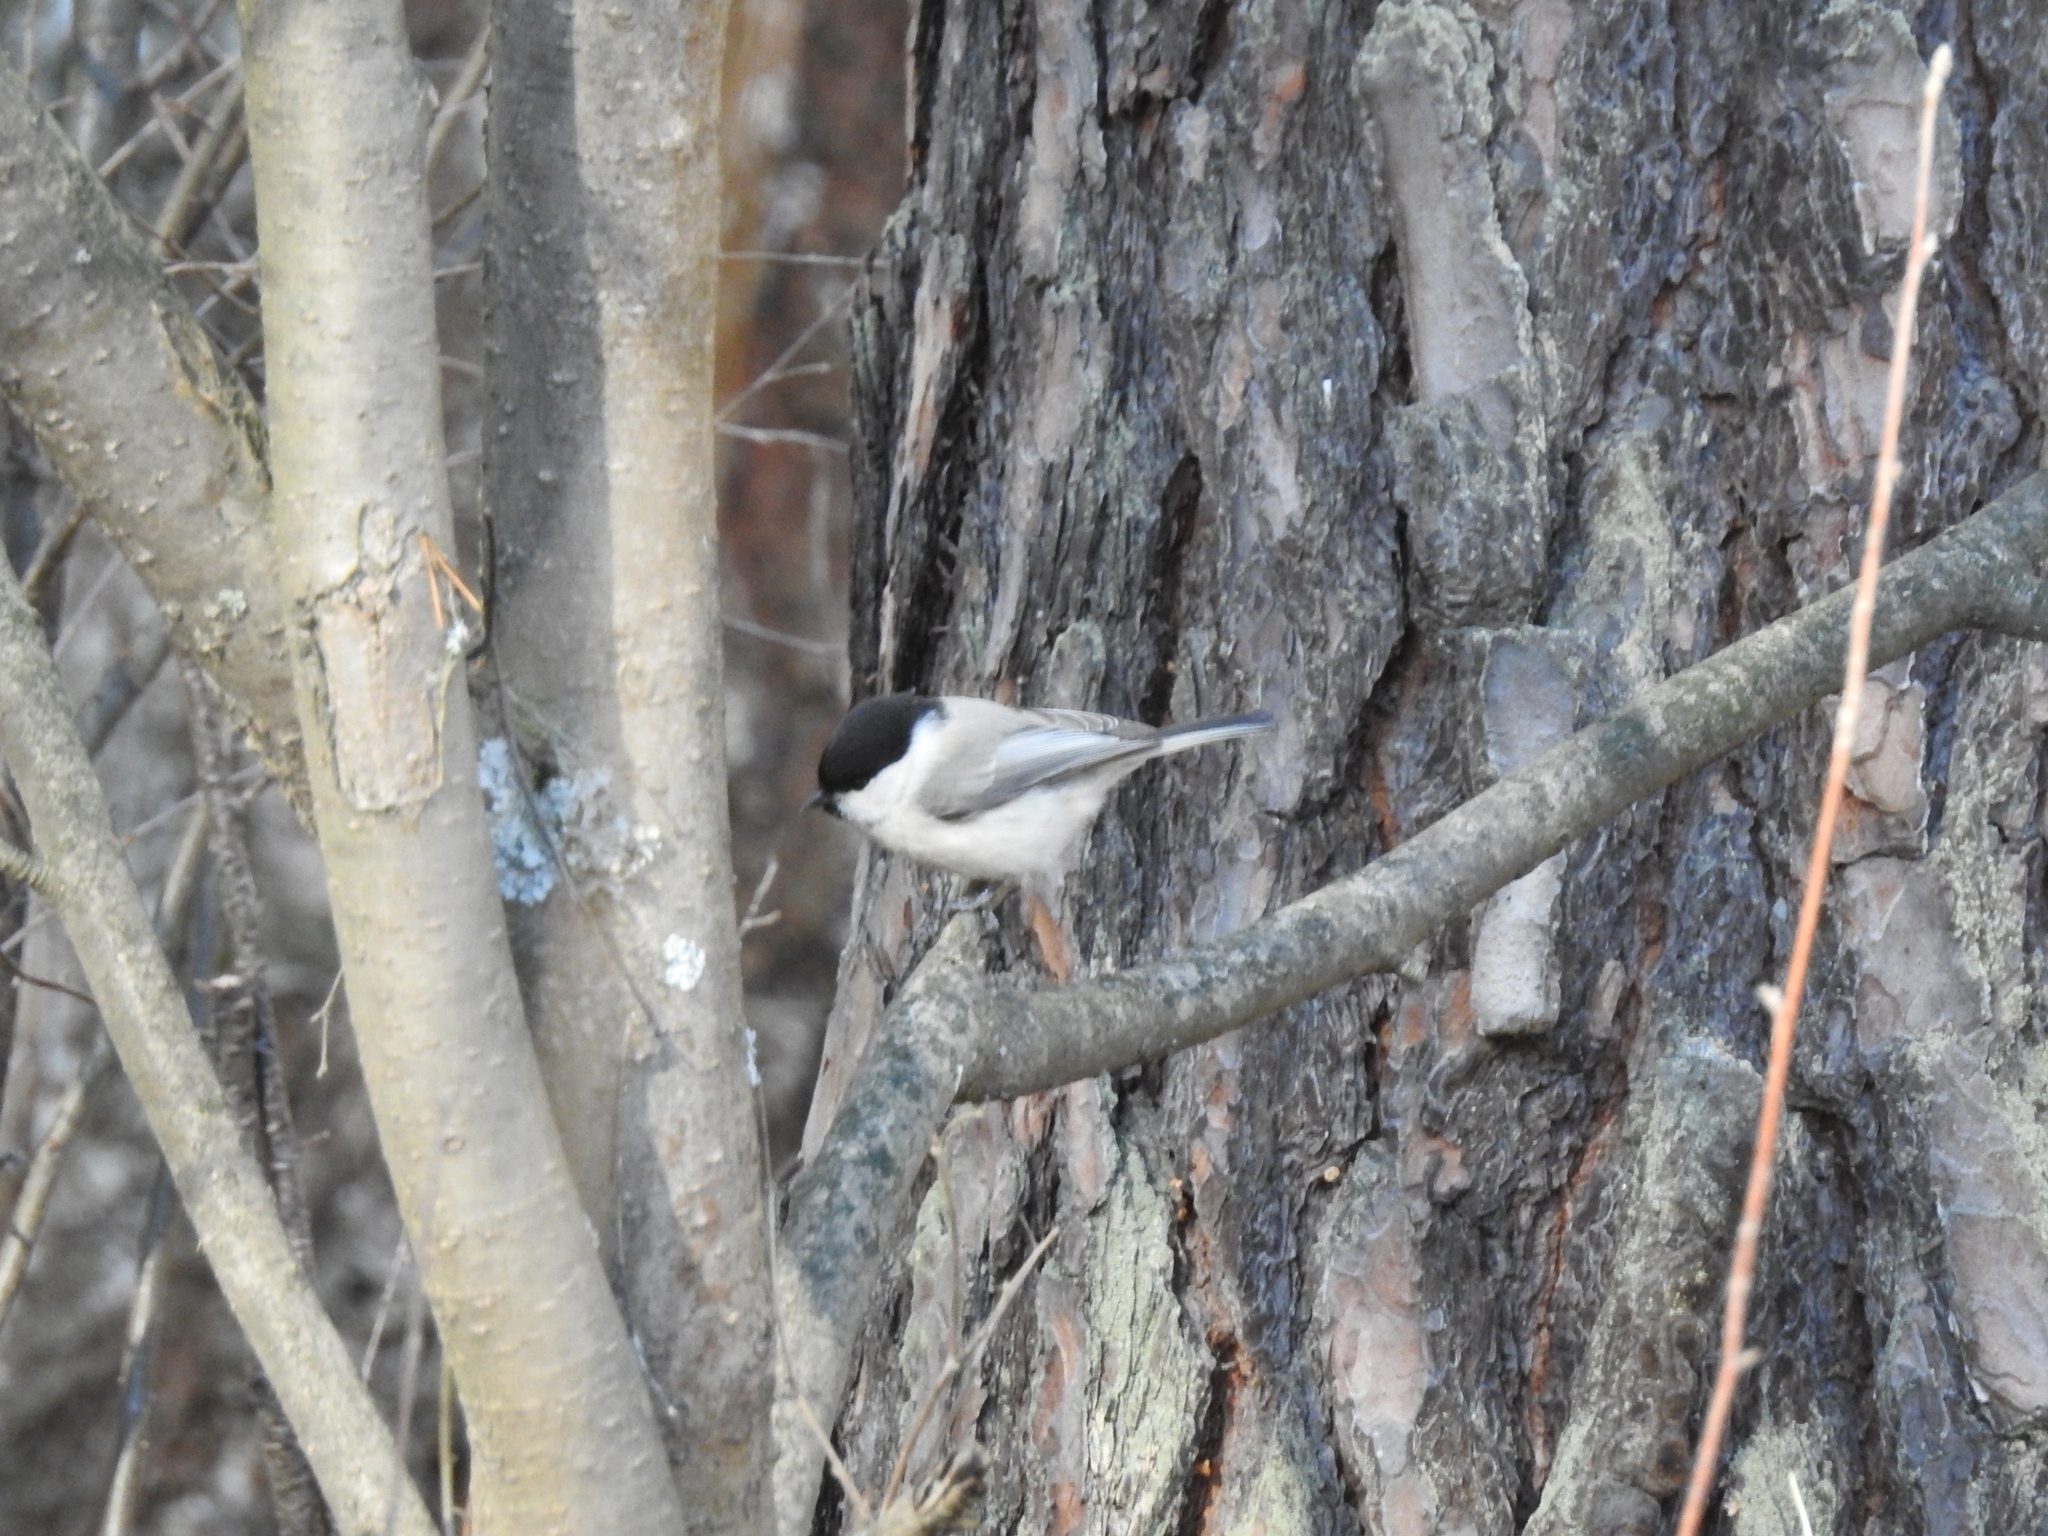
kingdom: Animalia
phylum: Chordata
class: Aves
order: Passeriformes
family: Paridae
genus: Poecile
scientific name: Poecile montanus
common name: Willow tit
